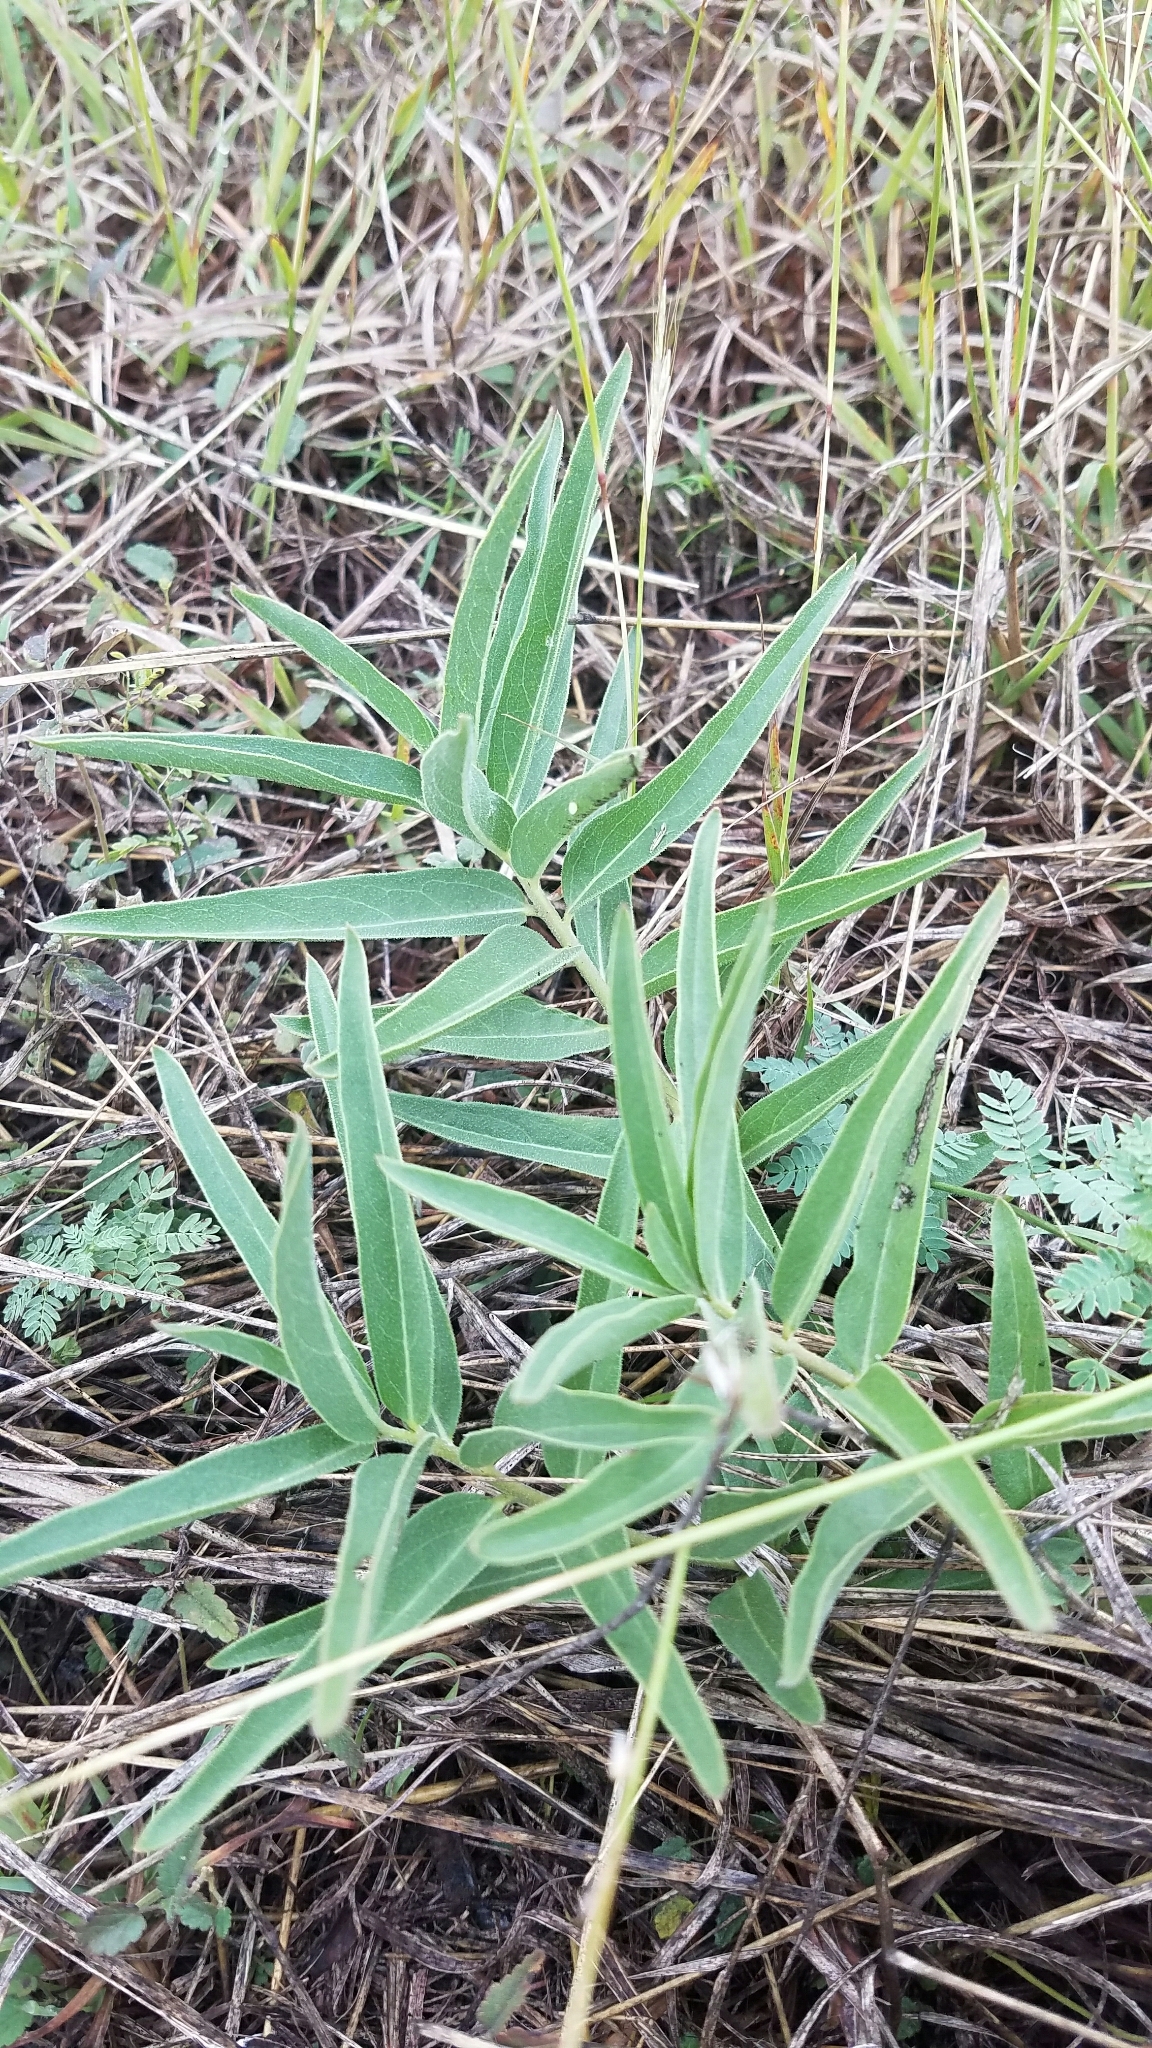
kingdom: Plantae
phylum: Tracheophyta
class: Magnoliopsida
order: Gentianales
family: Apocynaceae
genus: Asclepias
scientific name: Asclepias asperula
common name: Antelope horns
